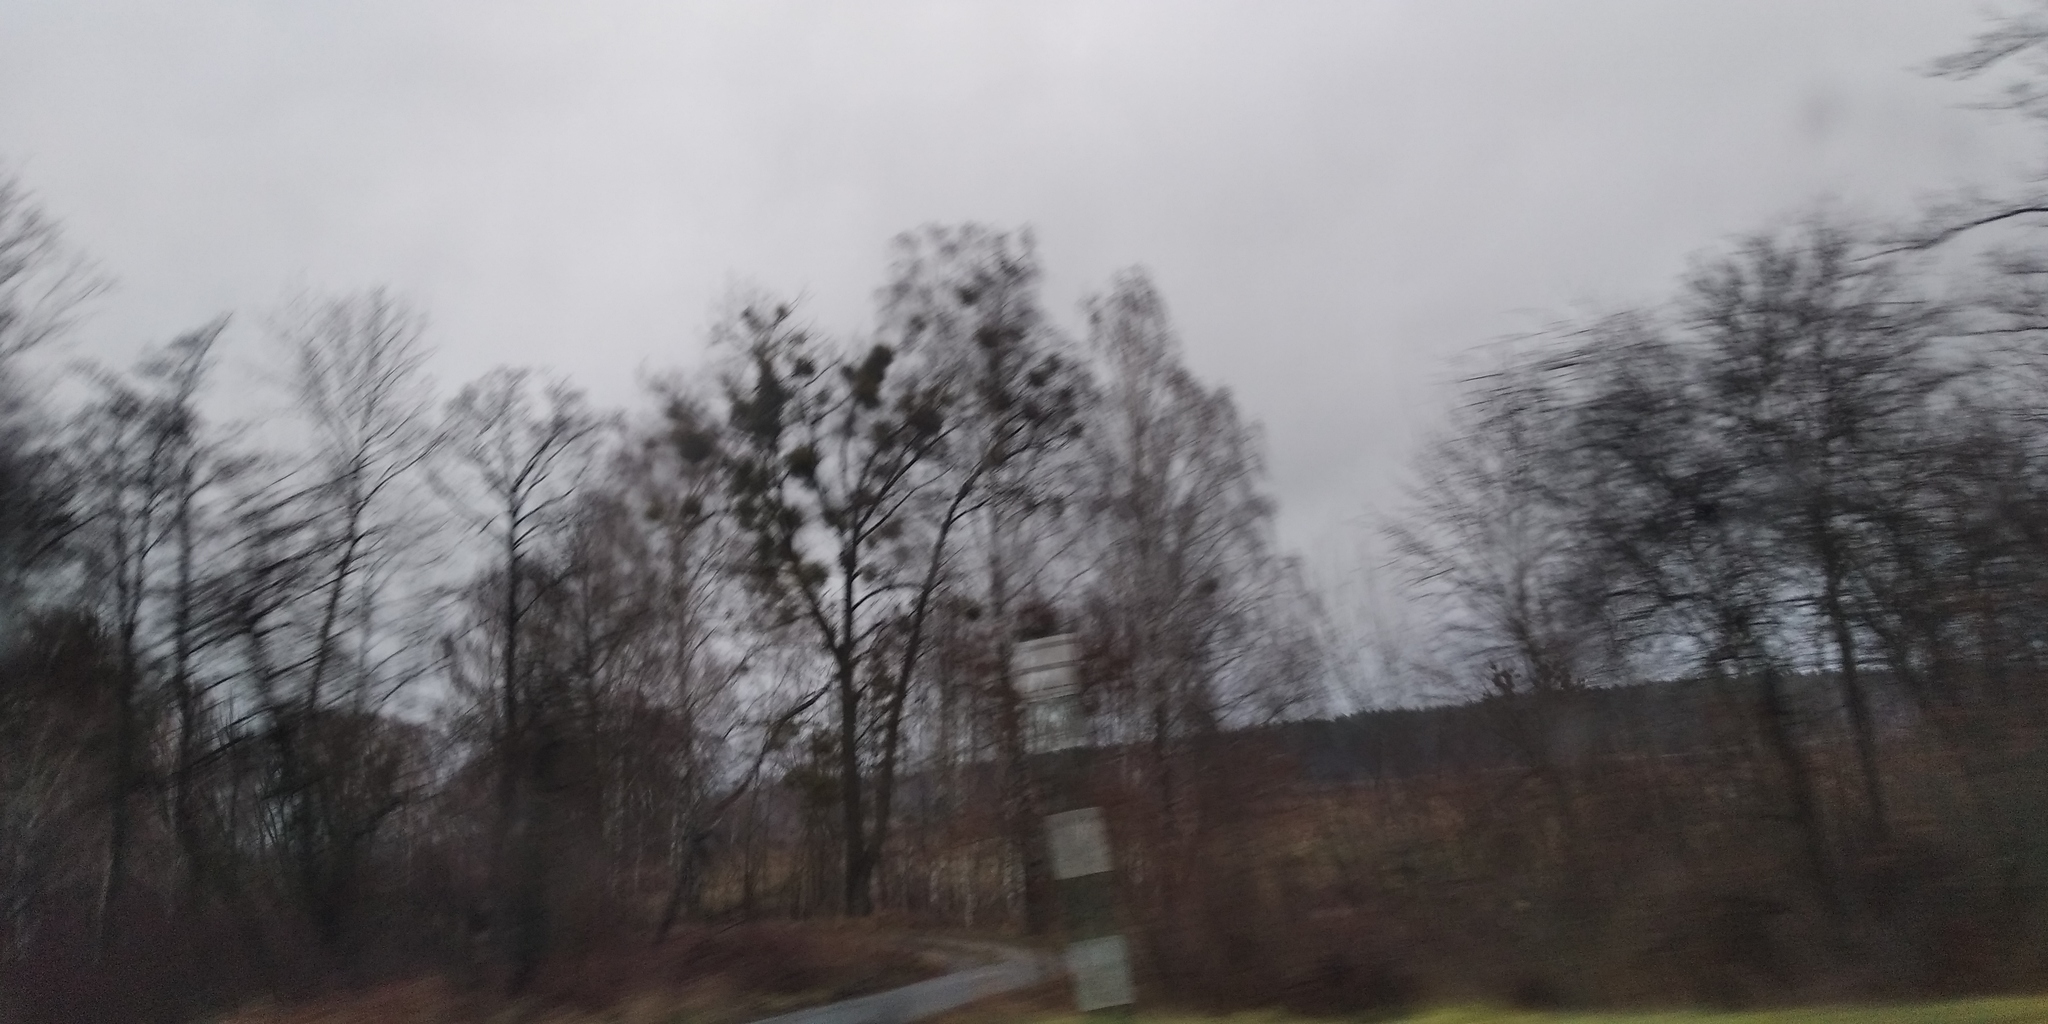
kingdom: Plantae
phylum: Tracheophyta
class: Magnoliopsida
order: Santalales
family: Viscaceae
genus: Viscum
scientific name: Viscum album
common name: Mistletoe
